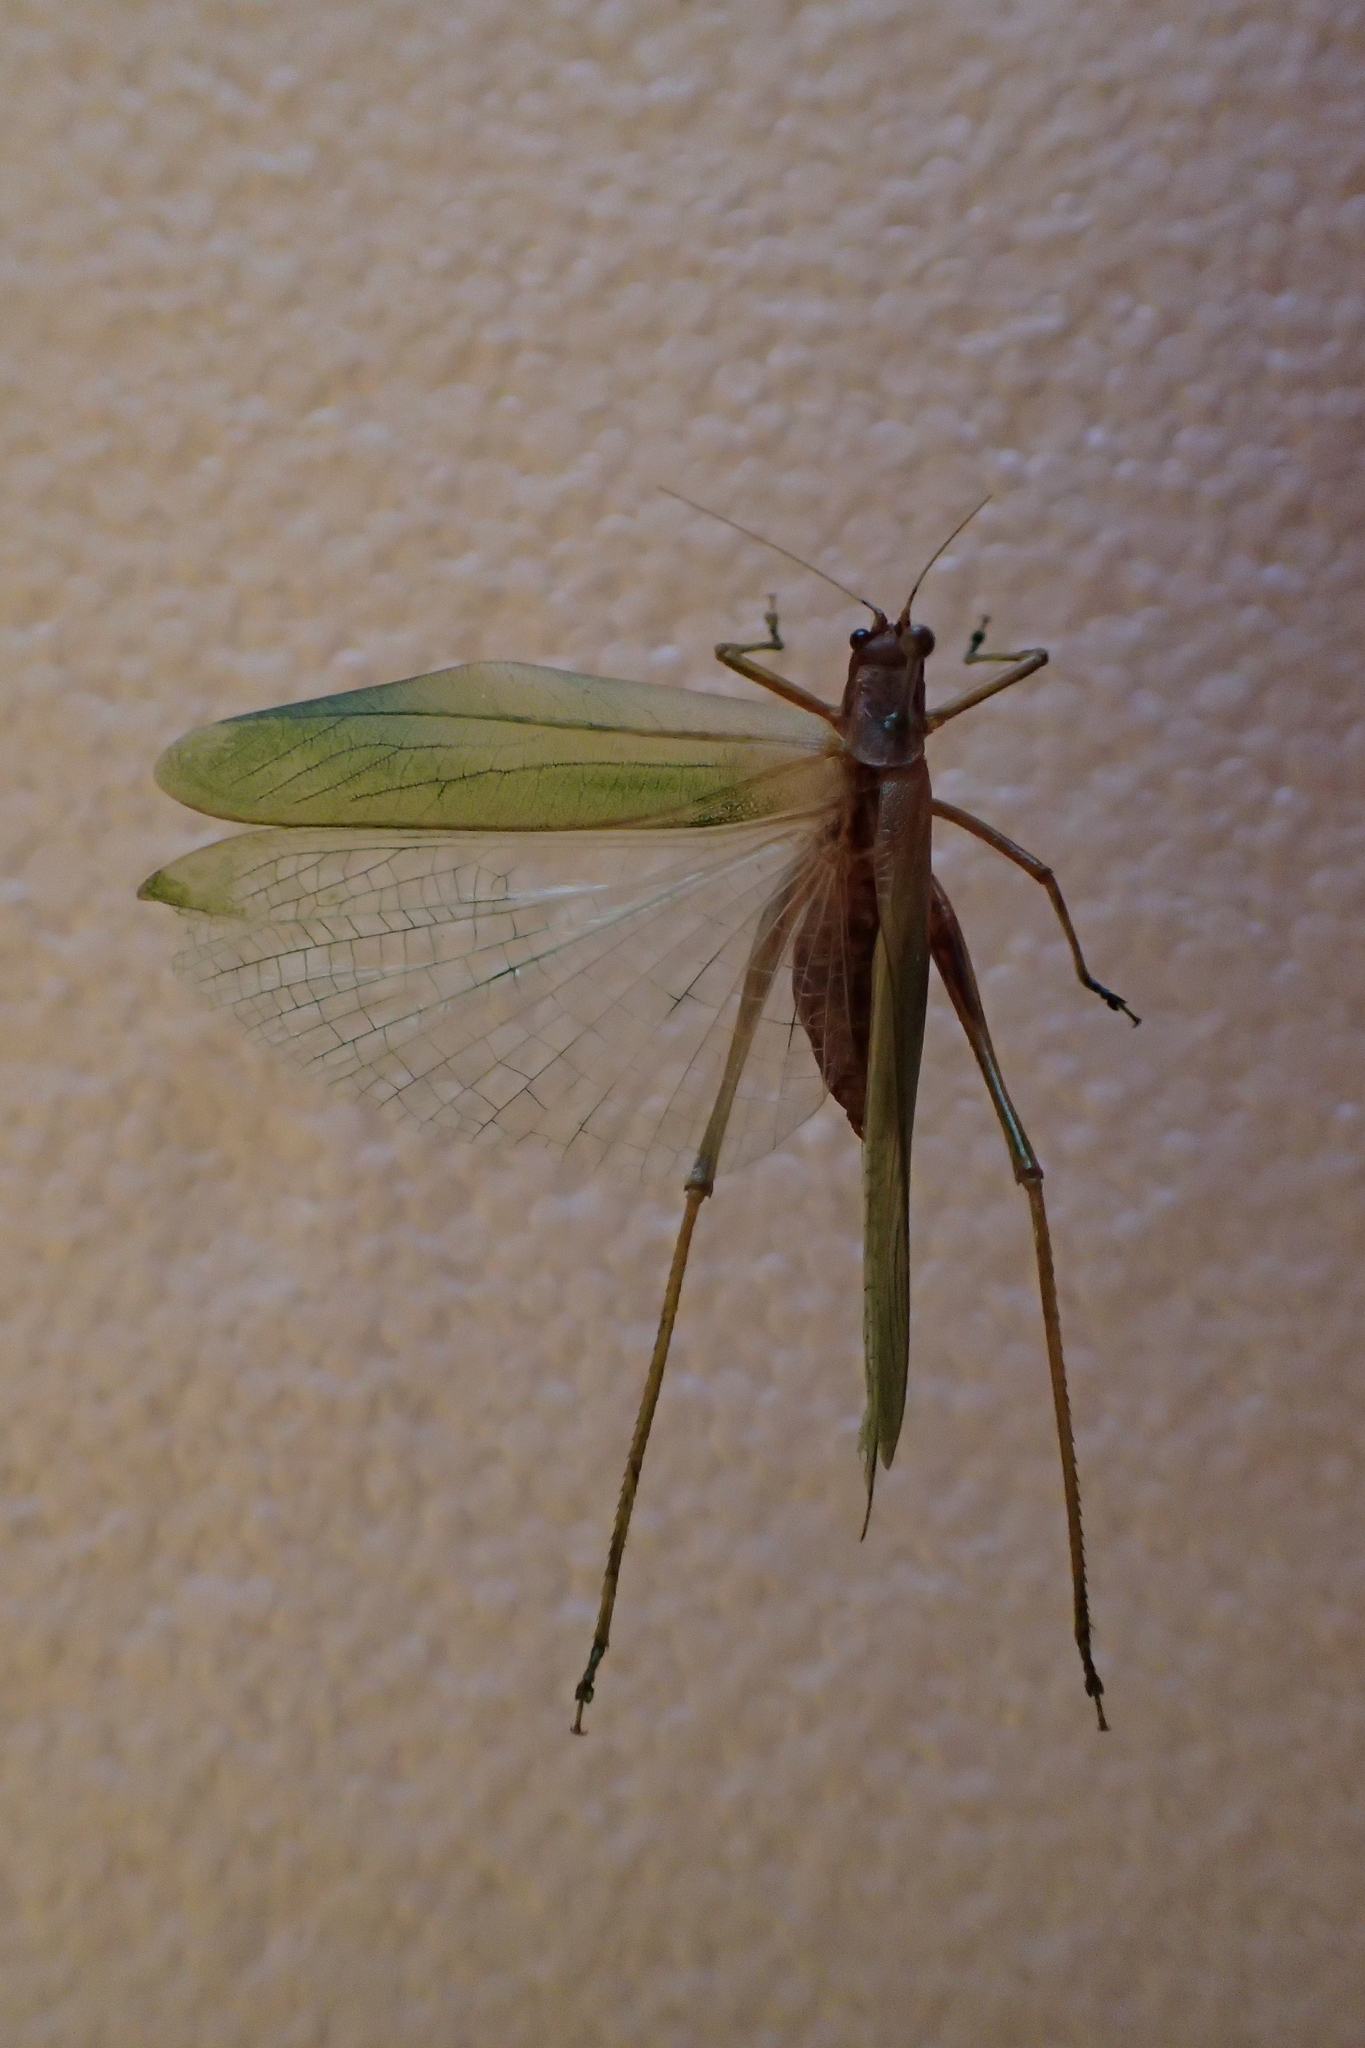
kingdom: Animalia
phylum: Arthropoda
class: Insecta
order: Orthoptera
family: Tettigoniidae
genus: Caedicia
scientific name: Caedicia simplex
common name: Common garden katydid
